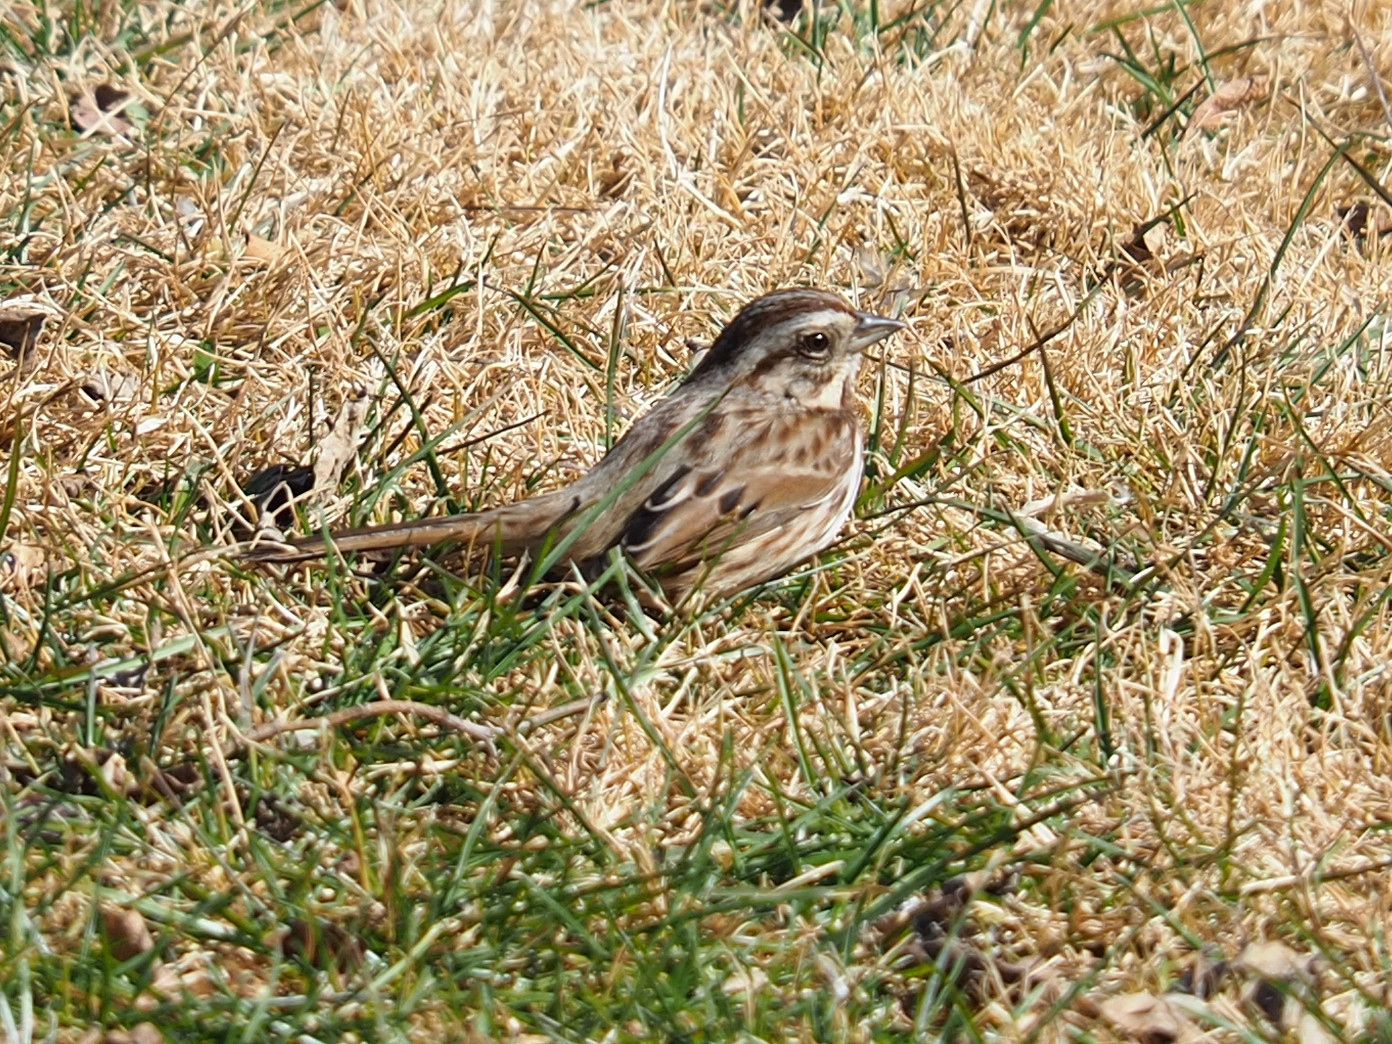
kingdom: Animalia
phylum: Chordata
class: Aves
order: Passeriformes
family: Passerellidae
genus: Melospiza
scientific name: Melospiza melodia
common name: Song sparrow
